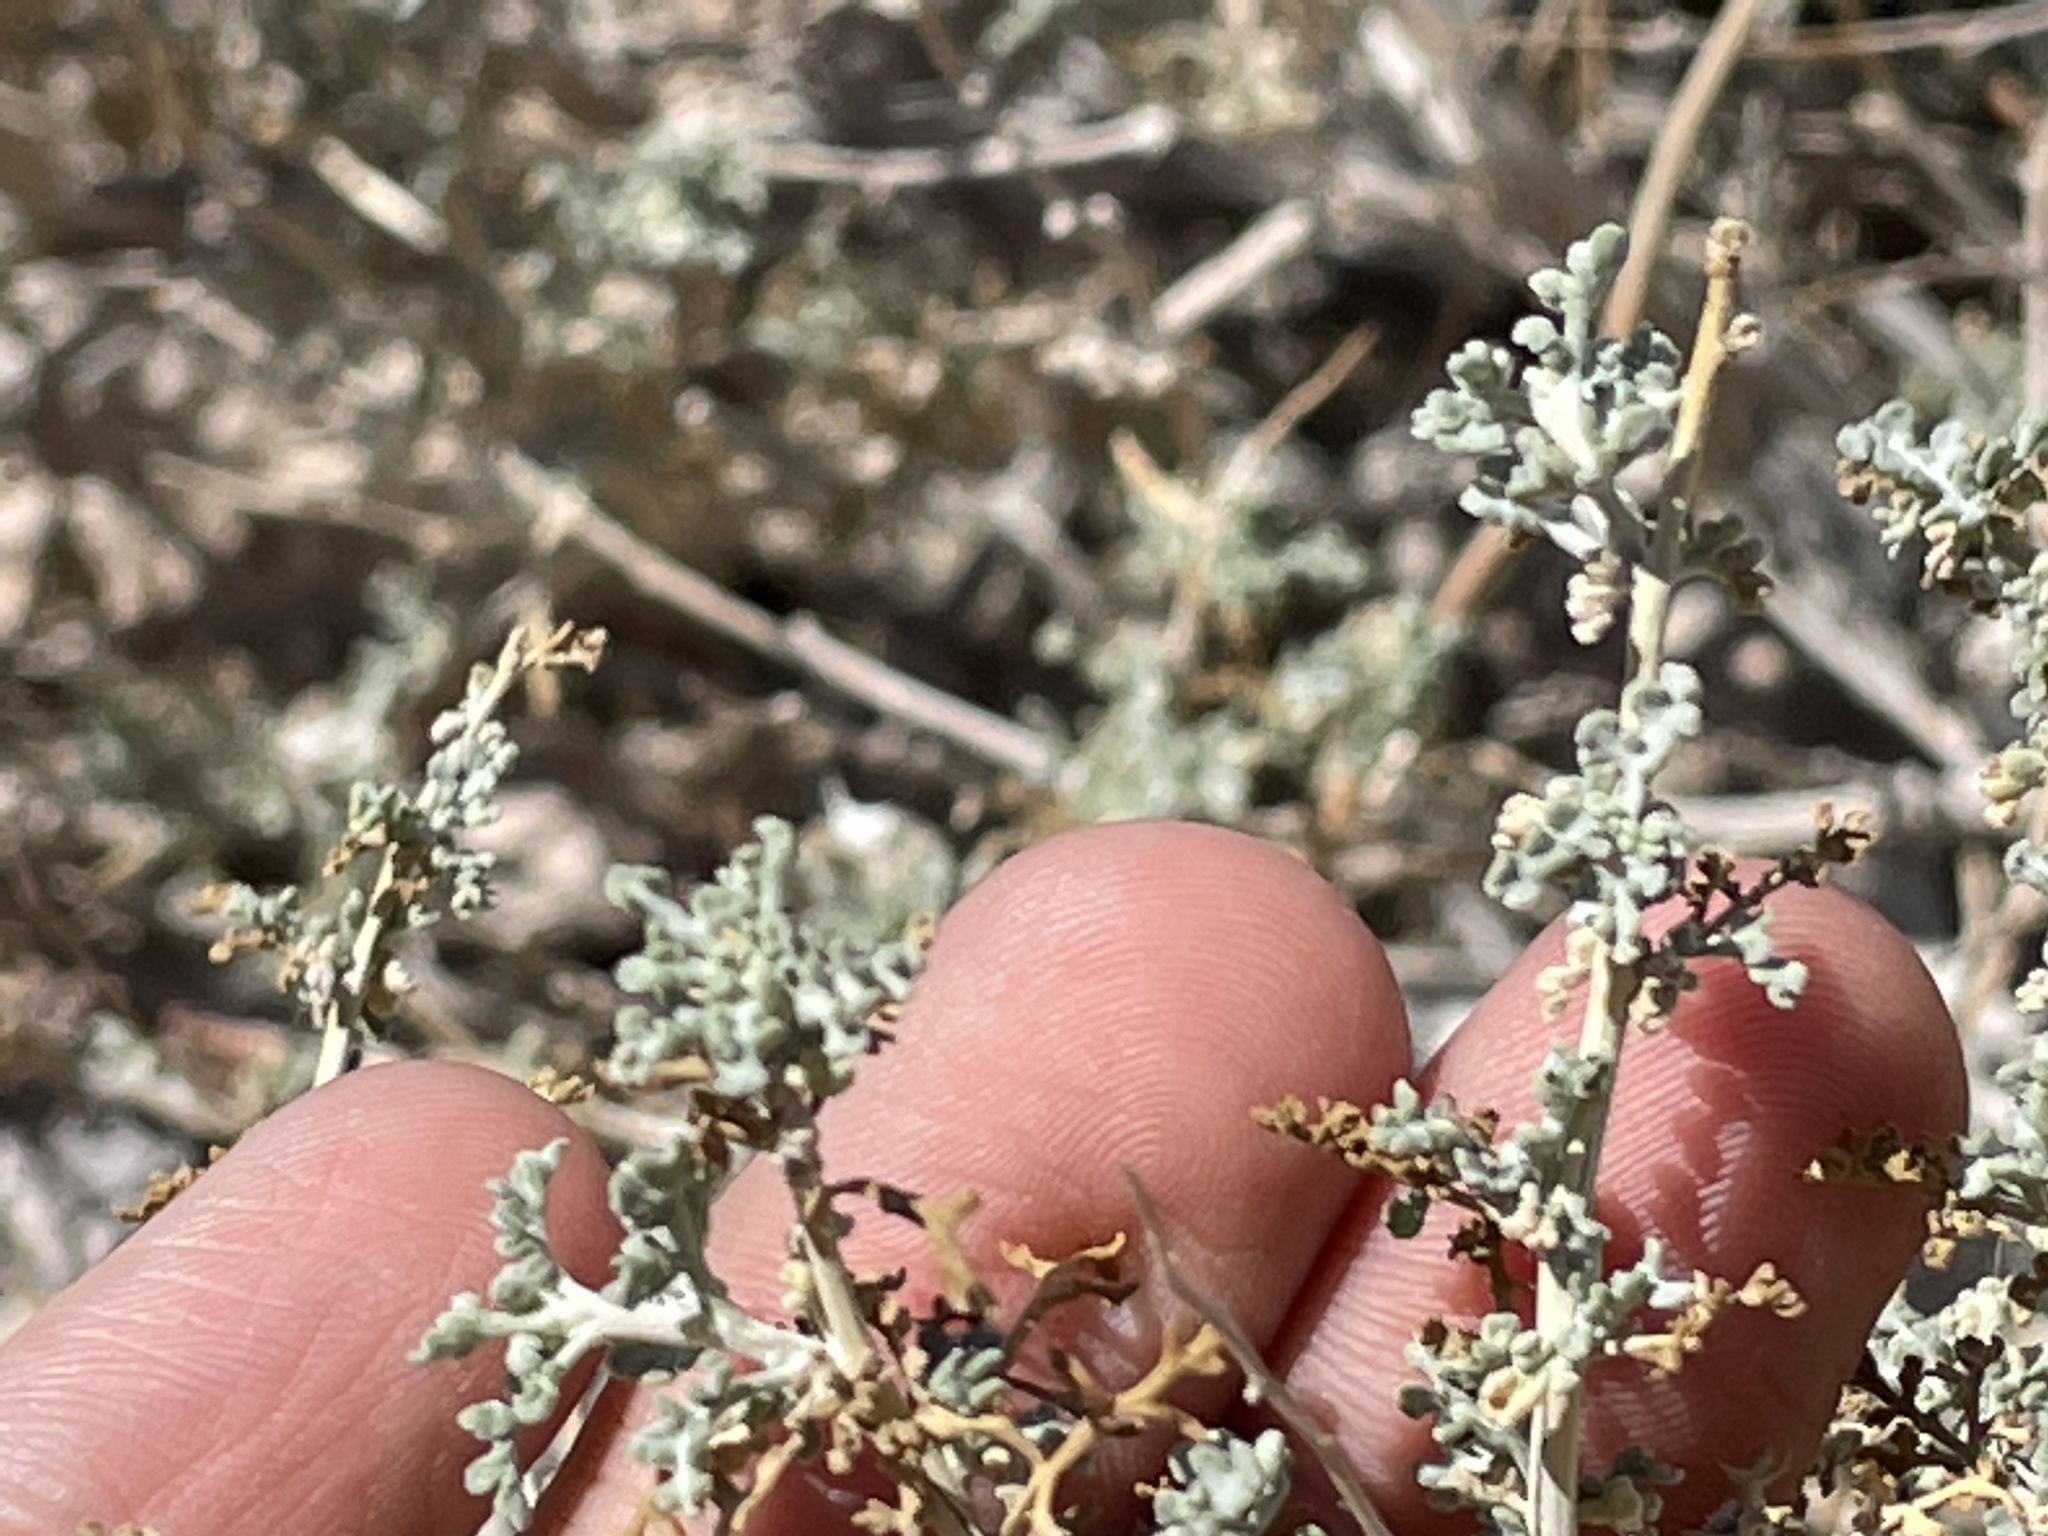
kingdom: Plantae
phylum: Tracheophyta
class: Magnoliopsida
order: Asterales
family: Asteraceae
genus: Ambrosia
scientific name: Ambrosia dumosa
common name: Bur-sage
